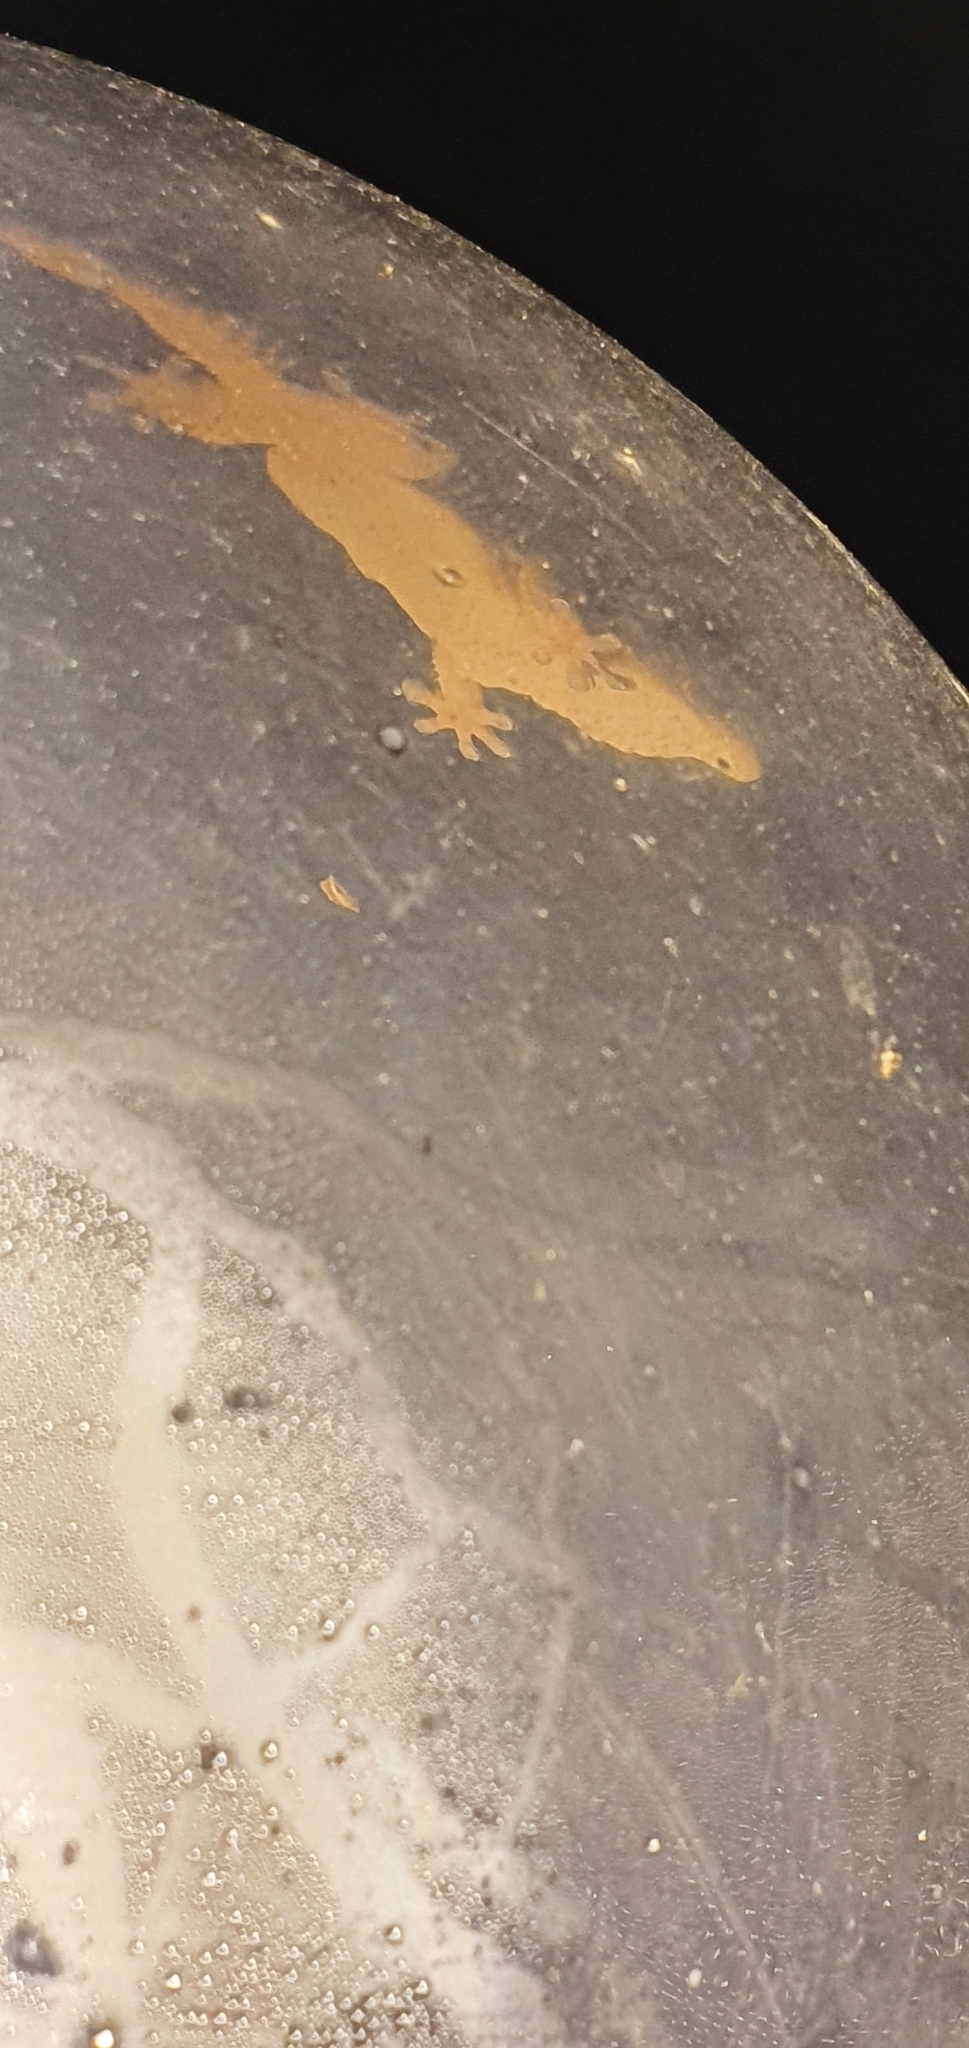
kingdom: Animalia
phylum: Chordata
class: Squamata
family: Phyllodactylidae
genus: Tarentola
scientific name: Tarentola mauritanica
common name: Moorish gecko
